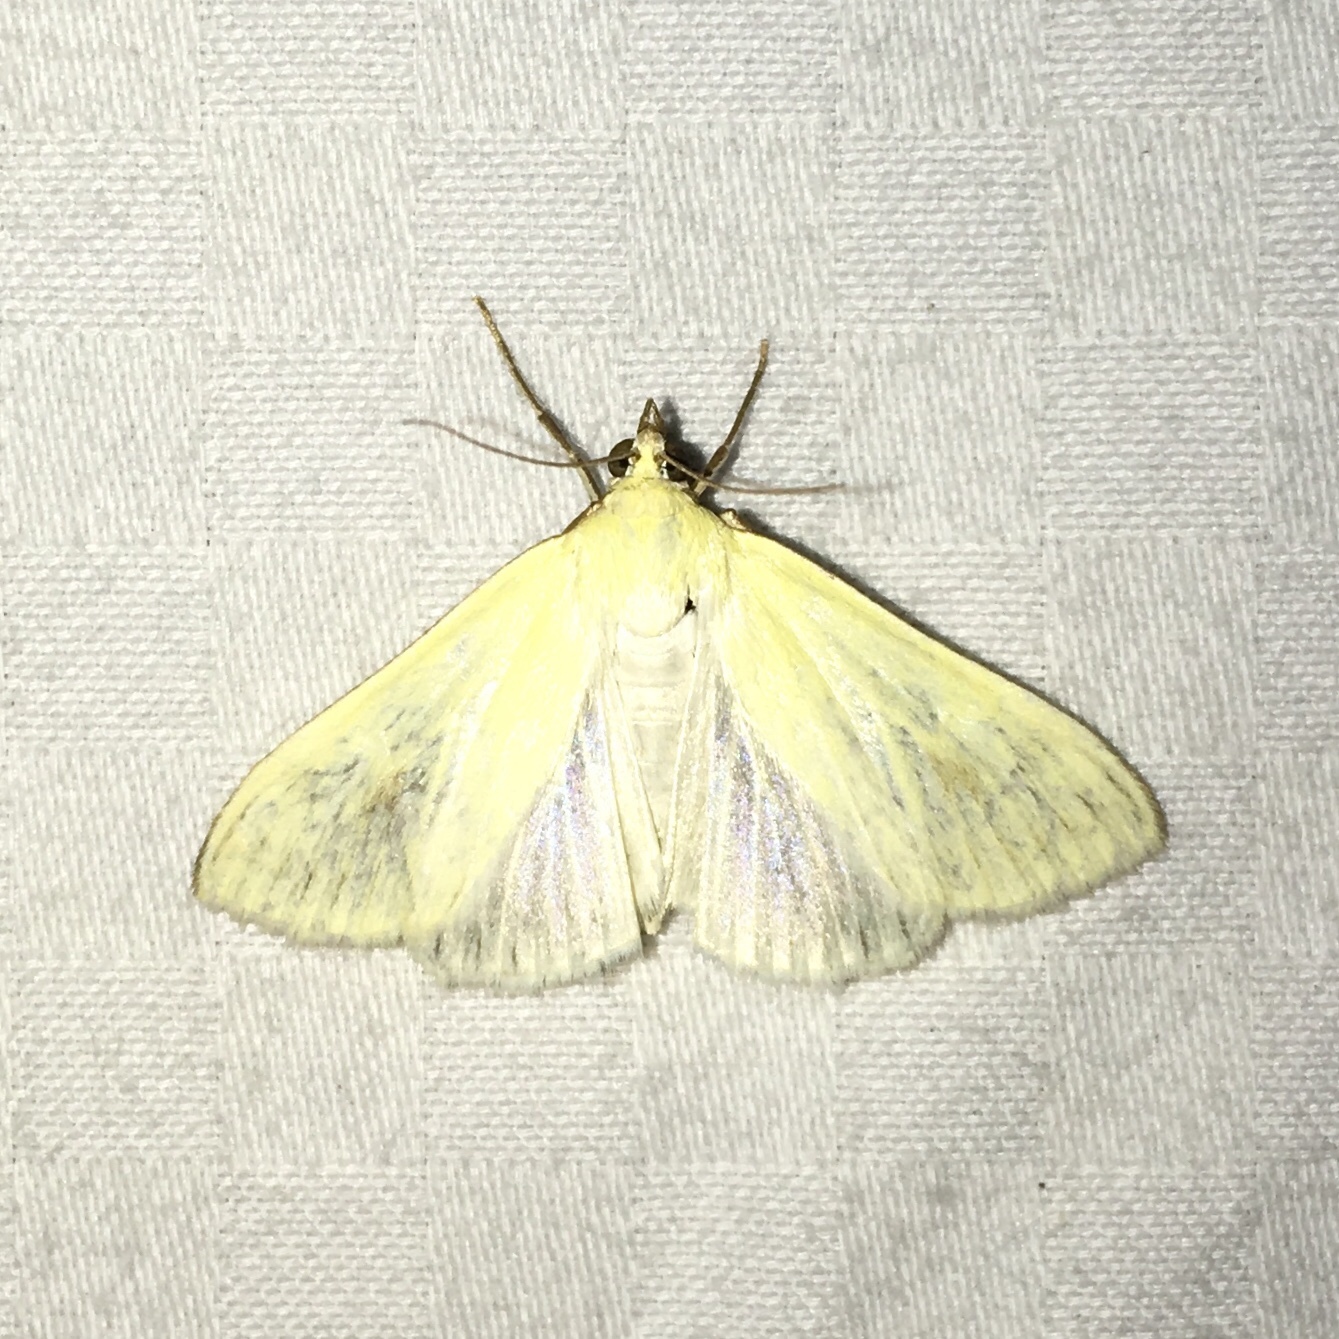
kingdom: Animalia
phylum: Arthropoda
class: Insecta
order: Lepidoptera
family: Crambidae
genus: Sitochroa
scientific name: Sitochroa palealis
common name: Greenish-yellow sitochroa moth
